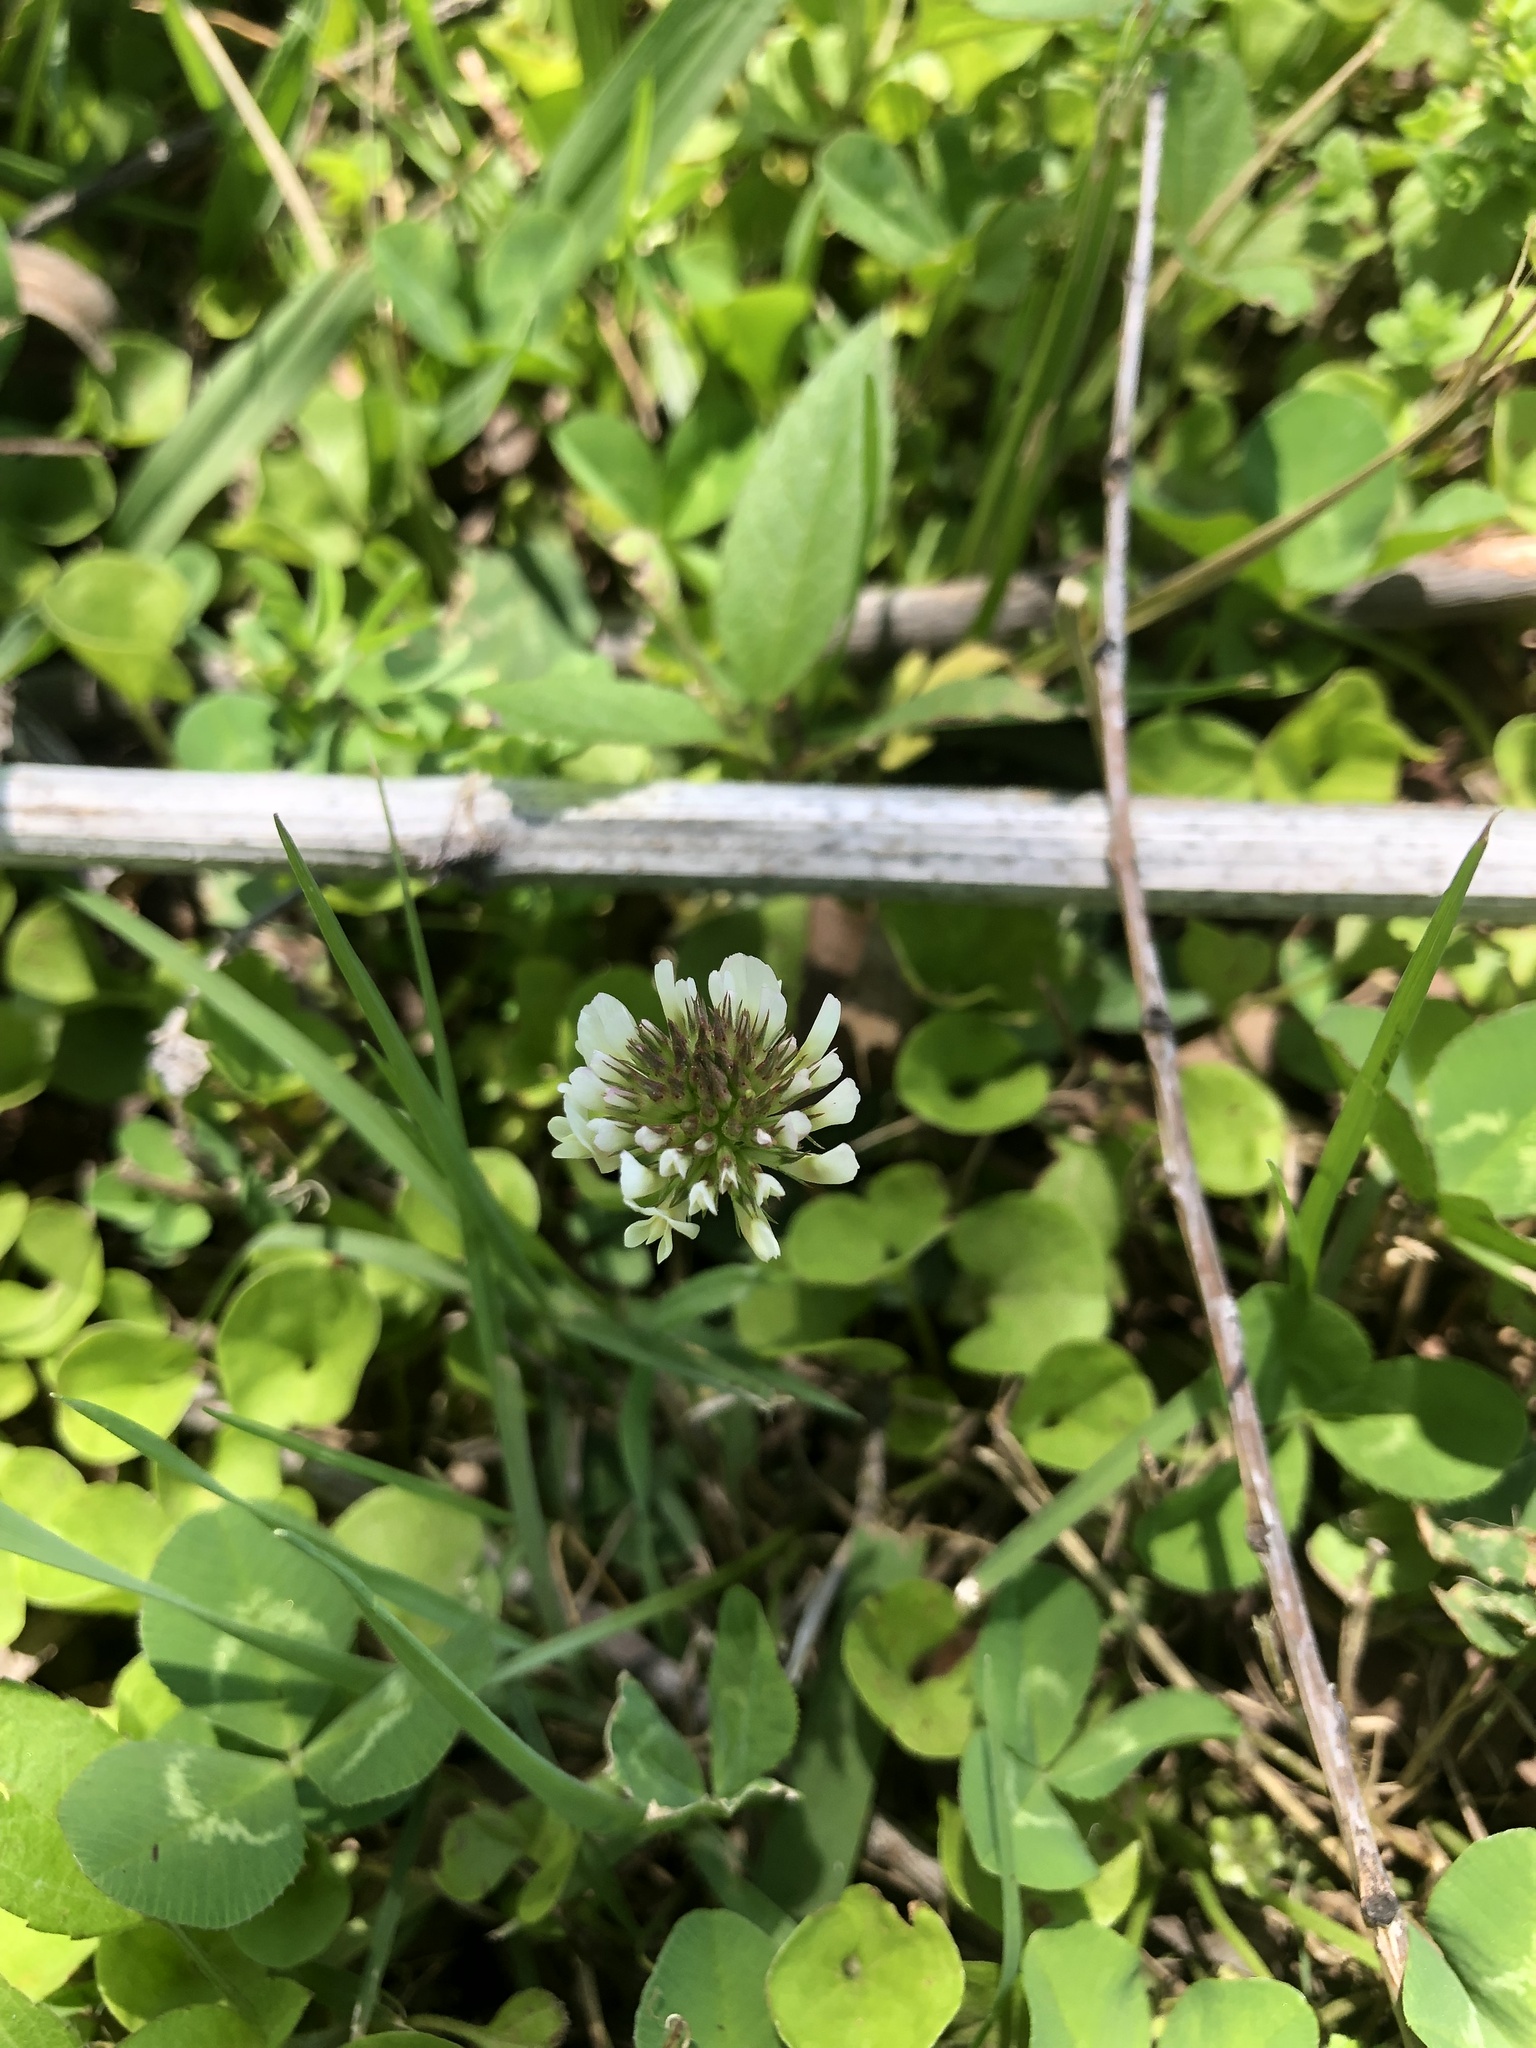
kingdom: Plantae
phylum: Tracheophyta
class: Magnoliopsida
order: Fabales
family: Fabaceae
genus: Trifolium
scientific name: Trifolium repens
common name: White clover
